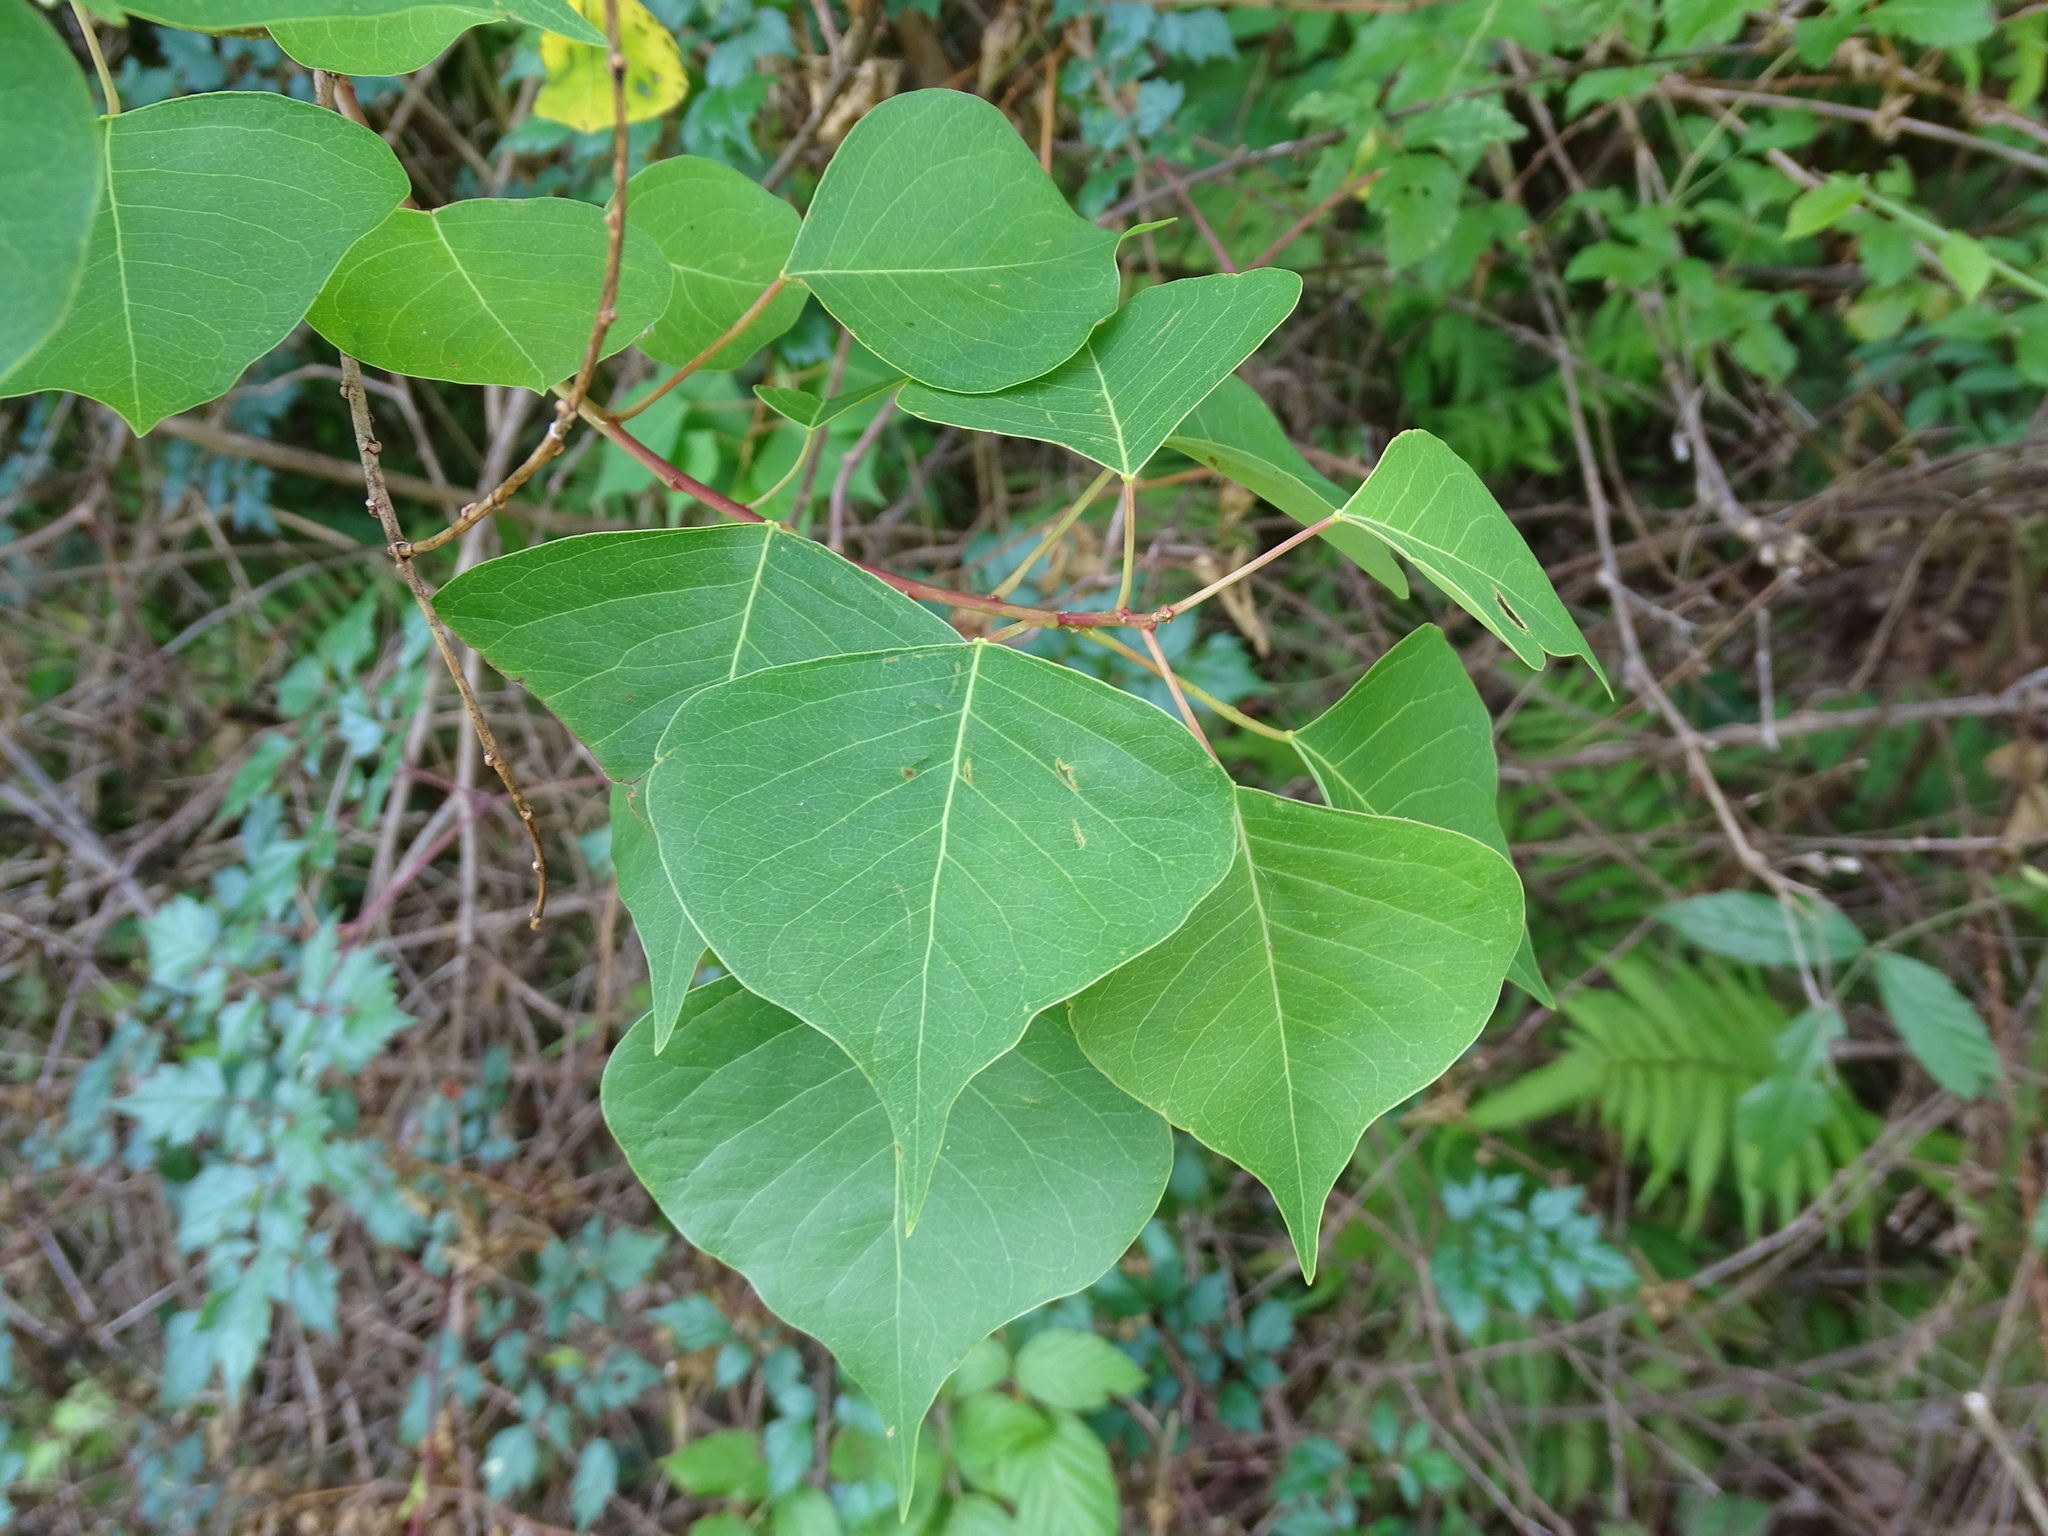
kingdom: Plantae
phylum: Tracheophyta
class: Magnoliopsida
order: Malpighiales
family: Euphorbiaceae
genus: Triadica
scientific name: Triadica sebifera
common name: Chinese tallow
